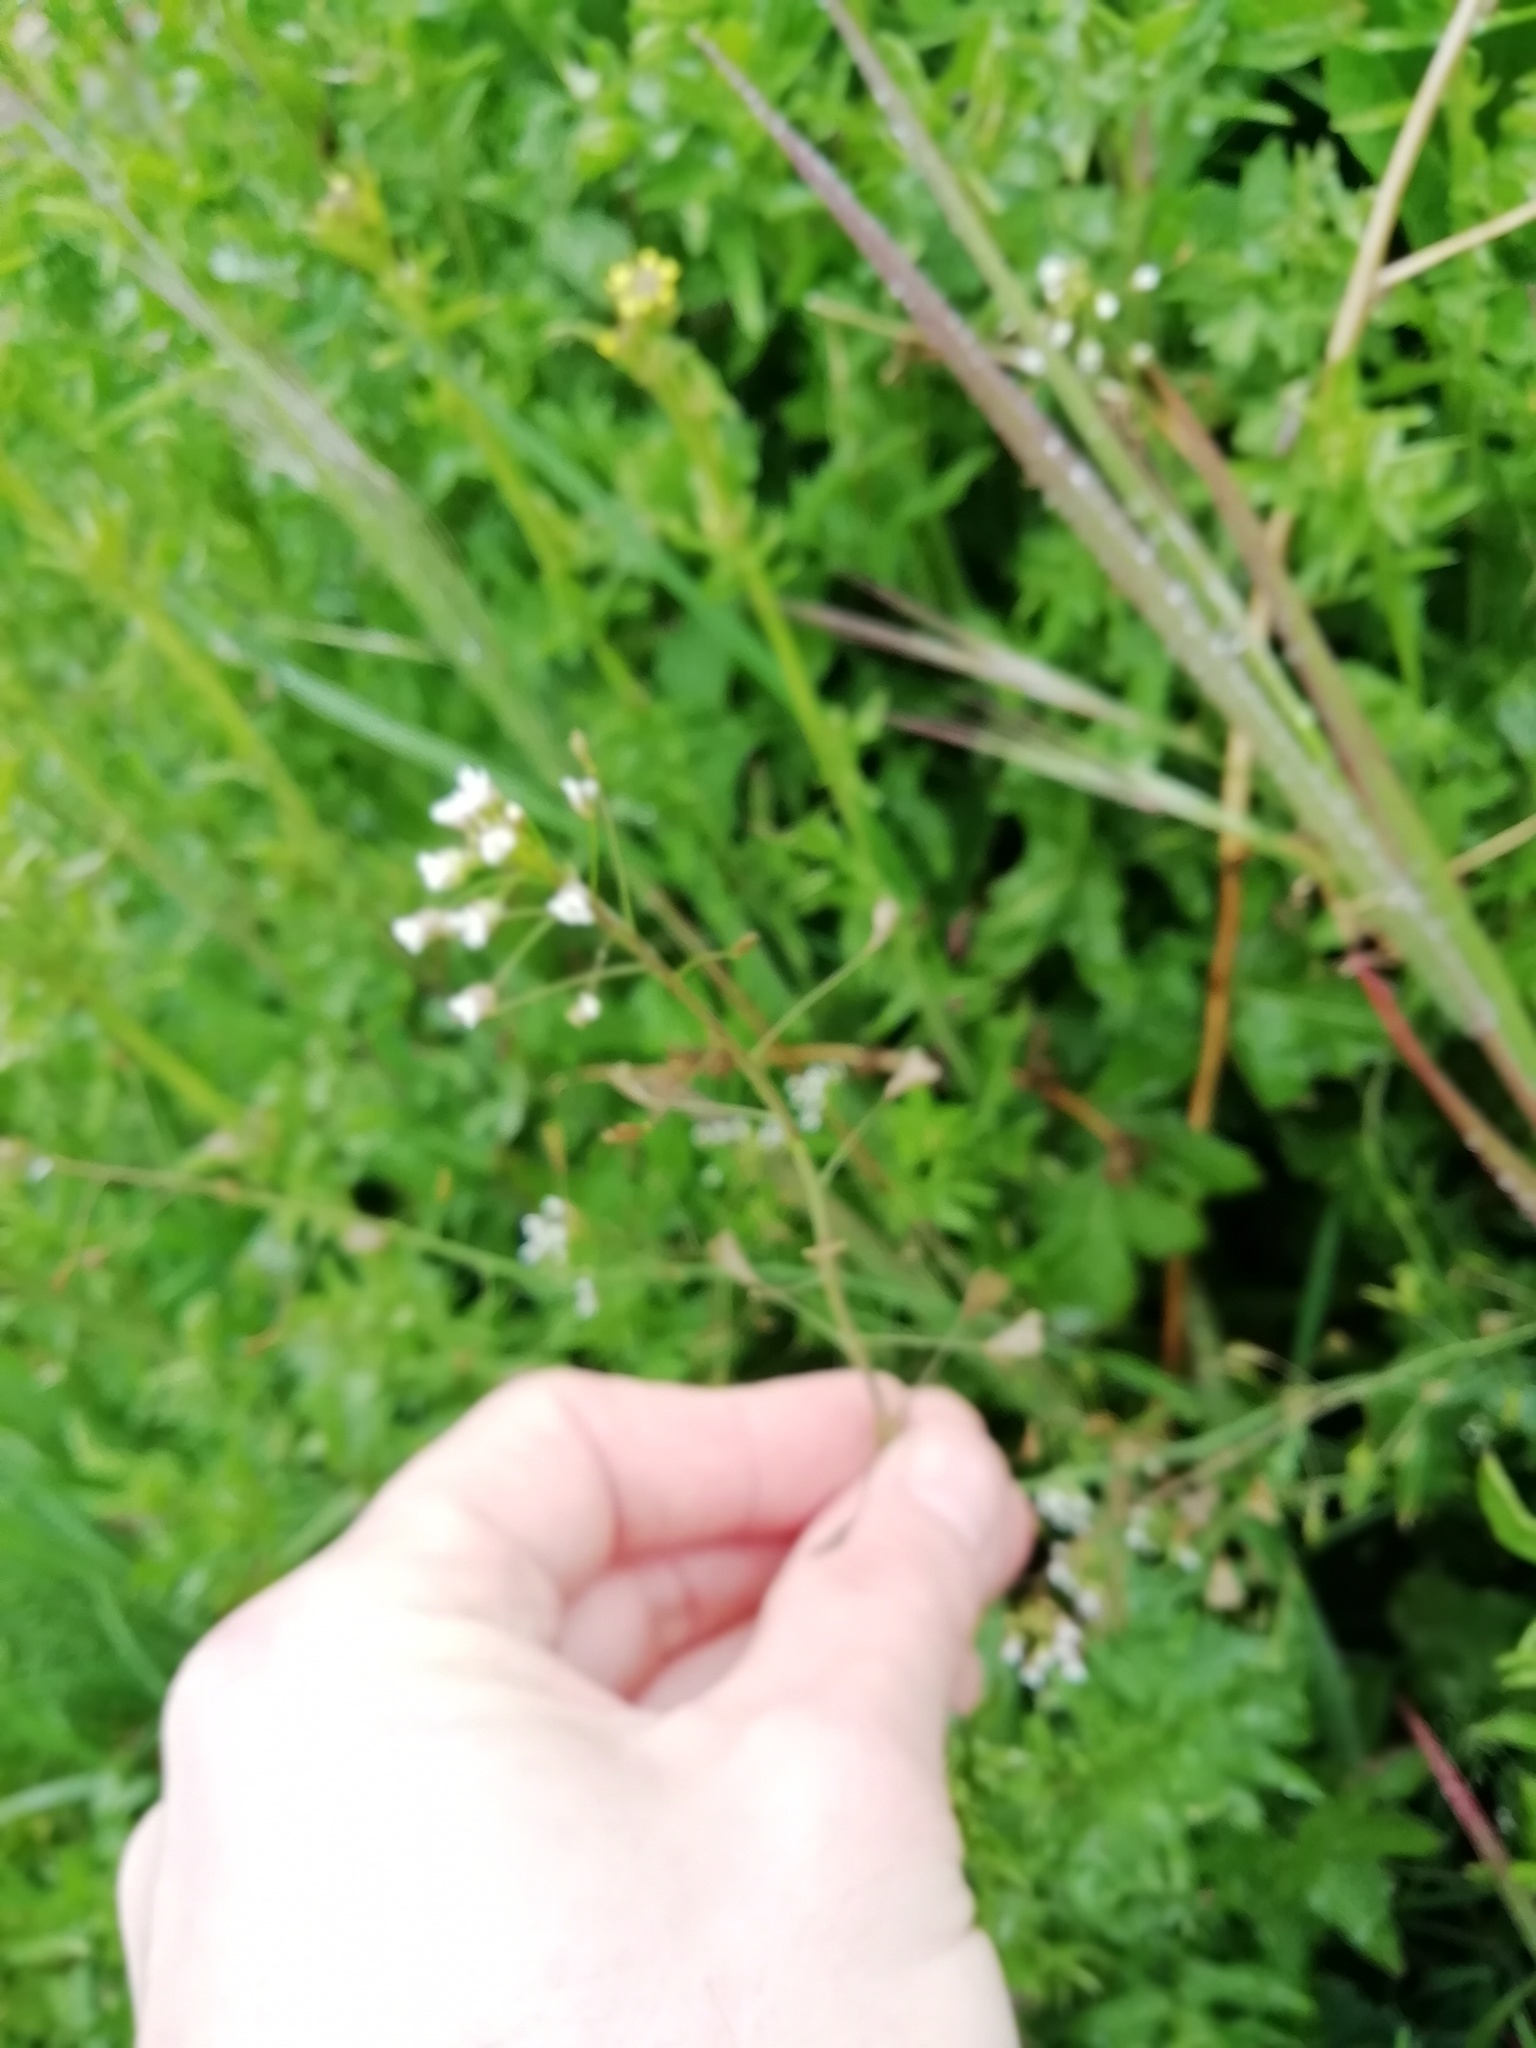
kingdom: Plantae
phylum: Tracheophyta
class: Magnoliopsida
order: Brassicales
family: Brassicaceae
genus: Capsella
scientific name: Capsella bursa-pastoris
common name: Shepherd's purse
